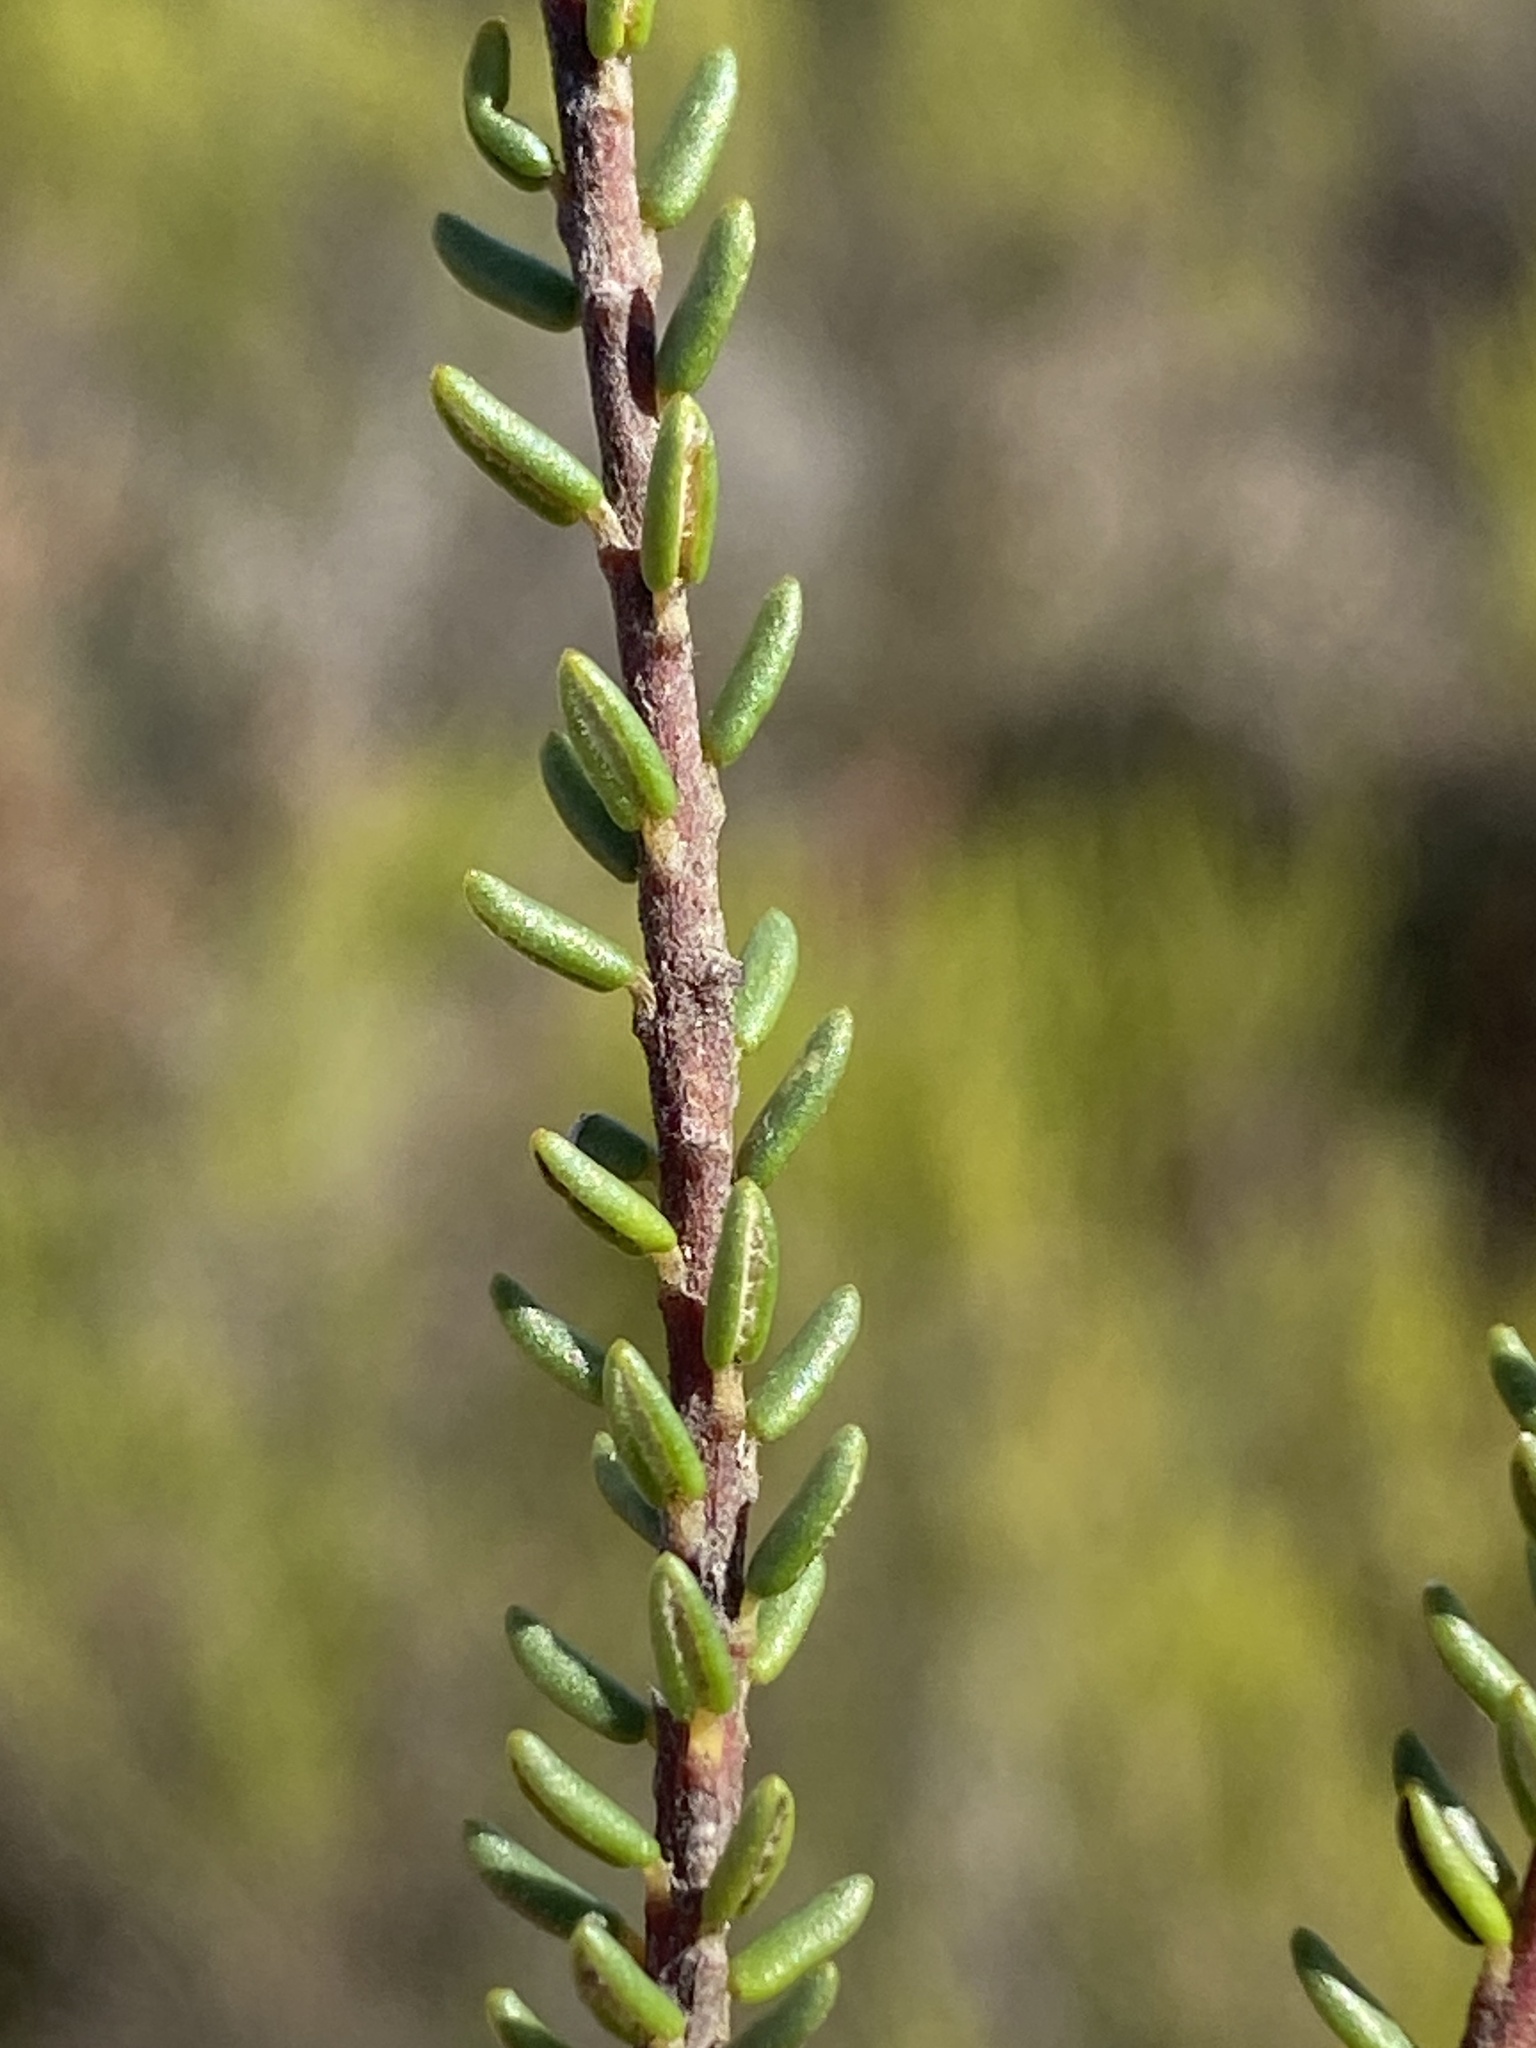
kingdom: Plantae
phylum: Tracheophyta
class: Magnoliopsida
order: Rosales
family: Rhamnaceae
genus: Phylica
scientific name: Phylica selaginoides
